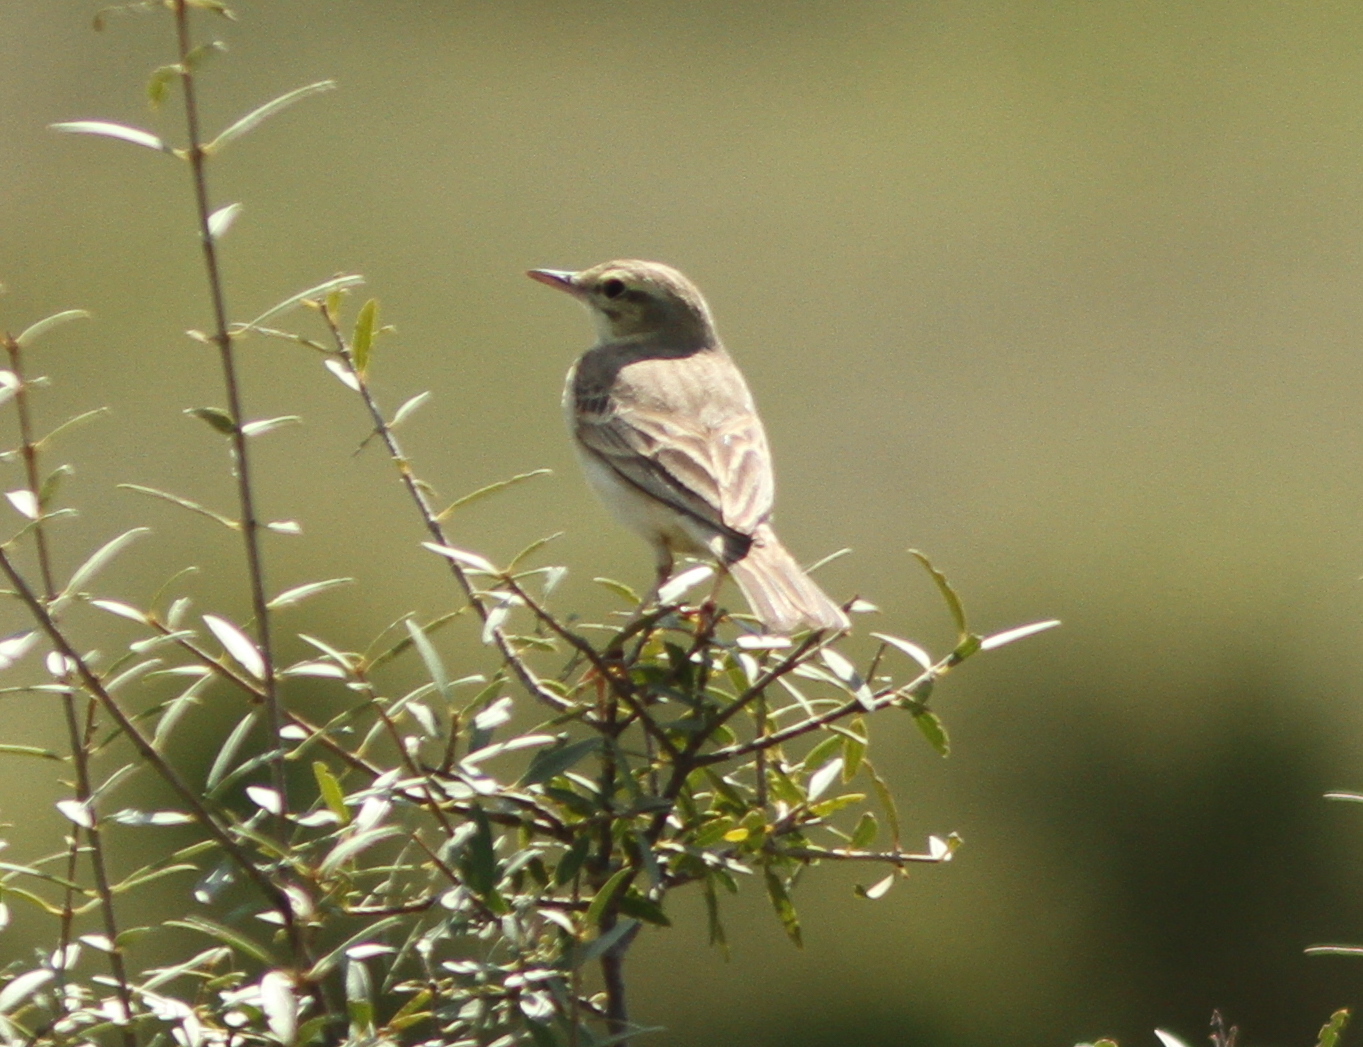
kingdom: Animalia
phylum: Chordata
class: Aves
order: Passeriformes
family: Motacillidae
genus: Anthus
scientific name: Anthus campestris
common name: Tawny pipit
